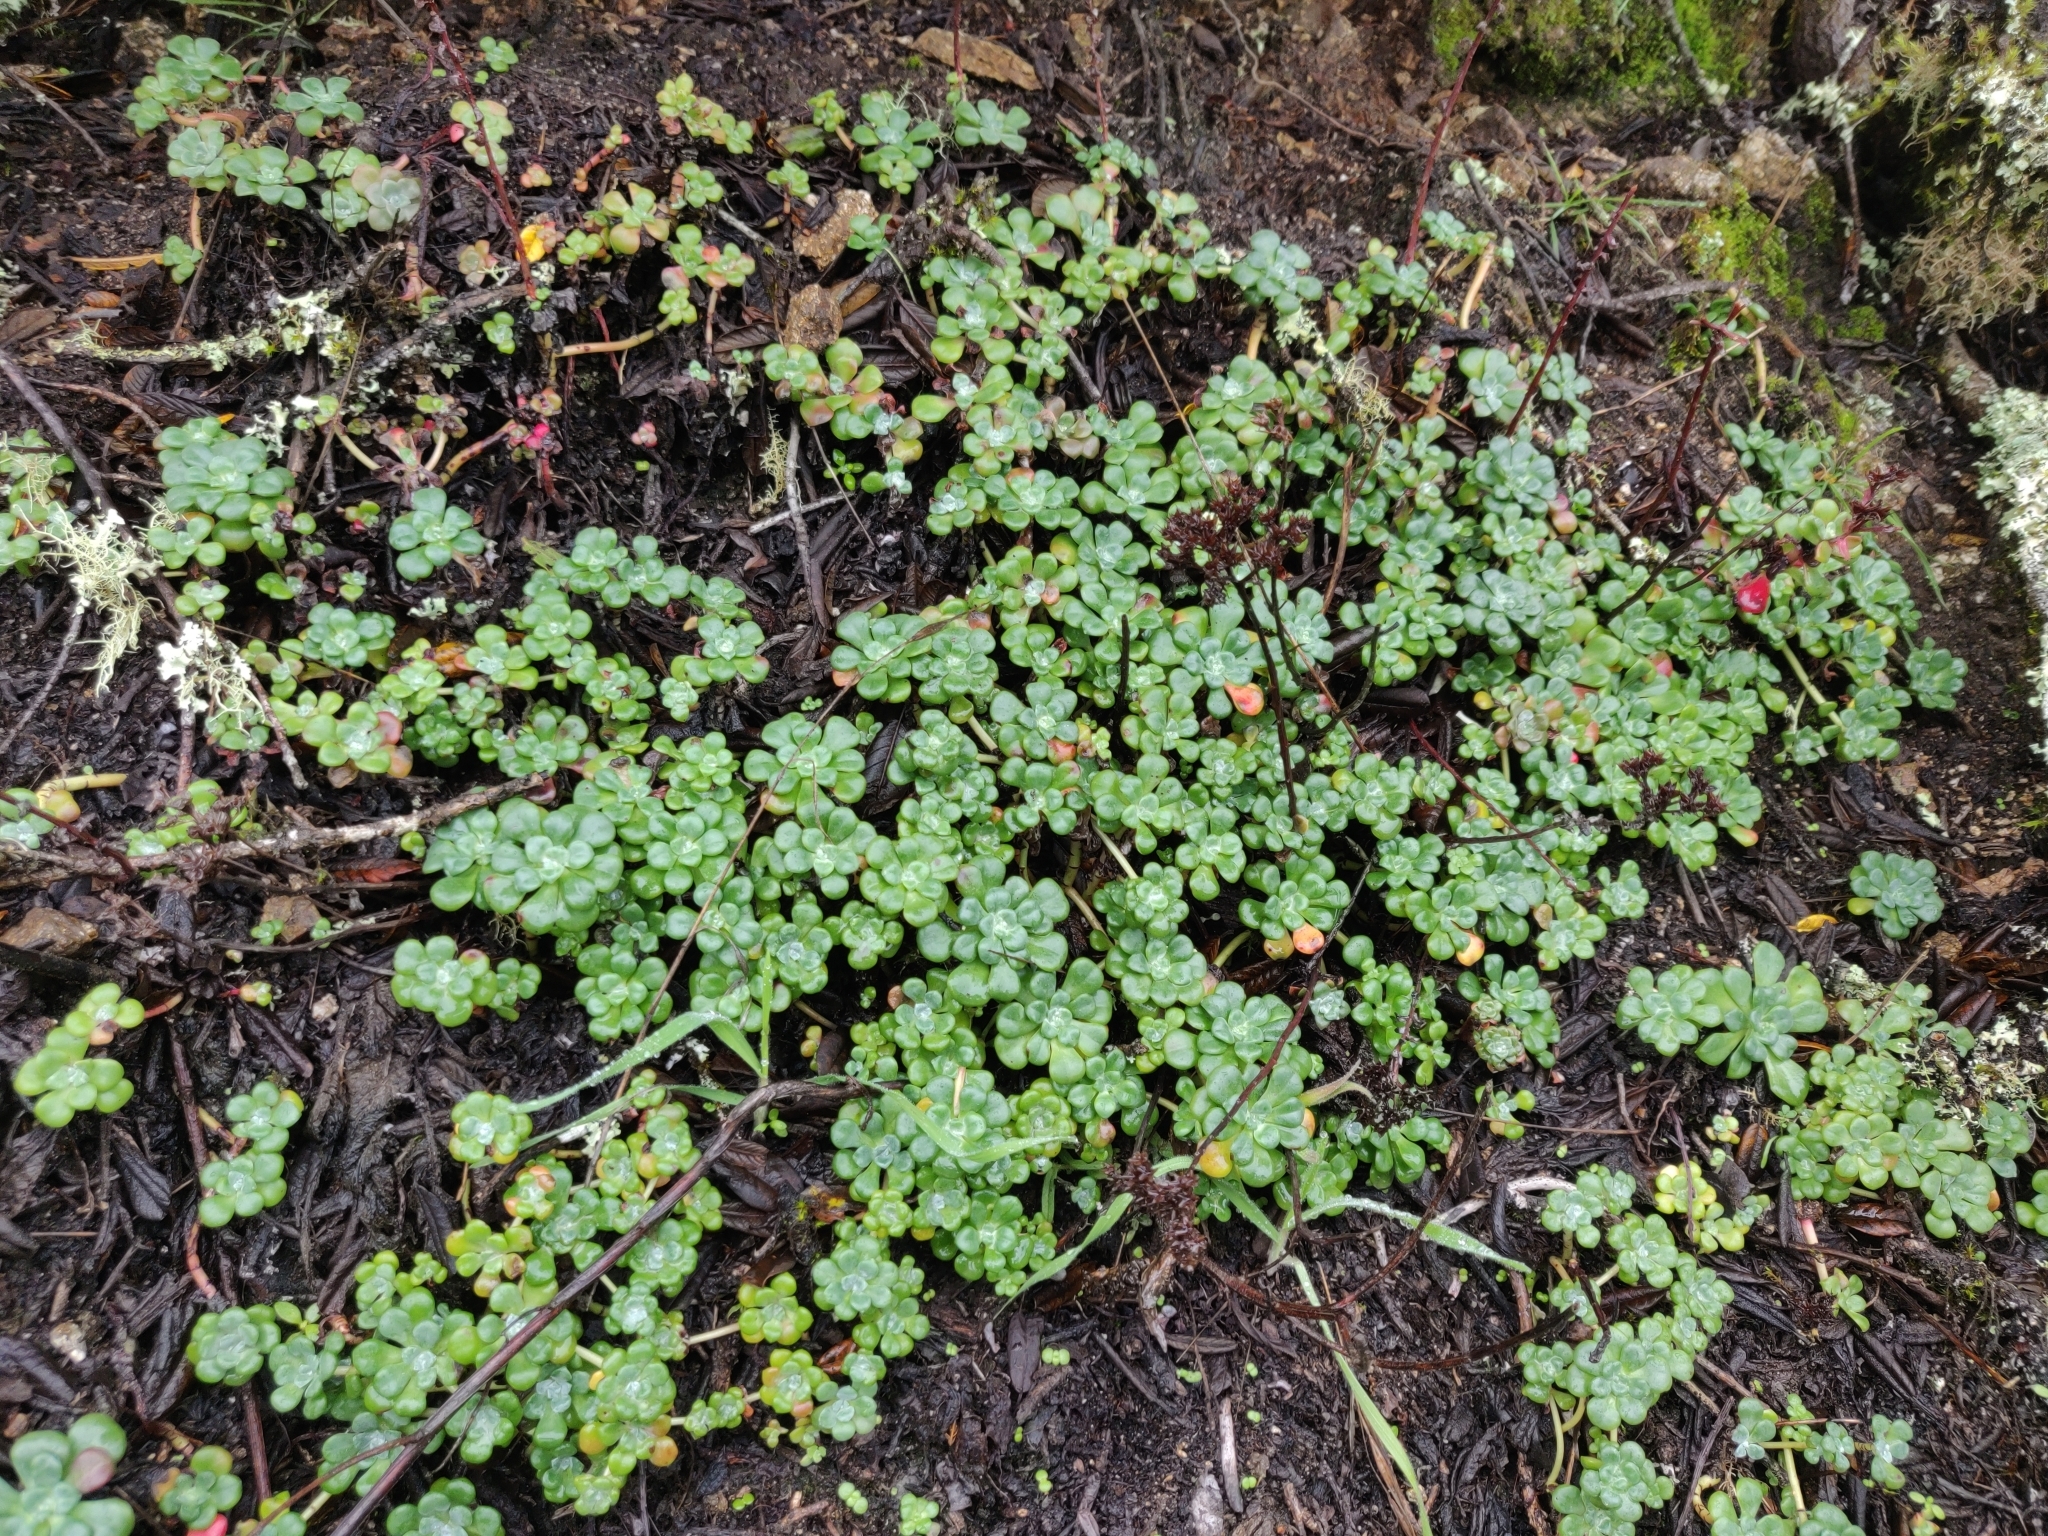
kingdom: Plantae
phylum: Tracheophyta
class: Magnoliopsida
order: Saxifragales
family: Crassulaceae
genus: Sedum
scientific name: Sedum spathulifolium
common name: Colorado stonecrop
